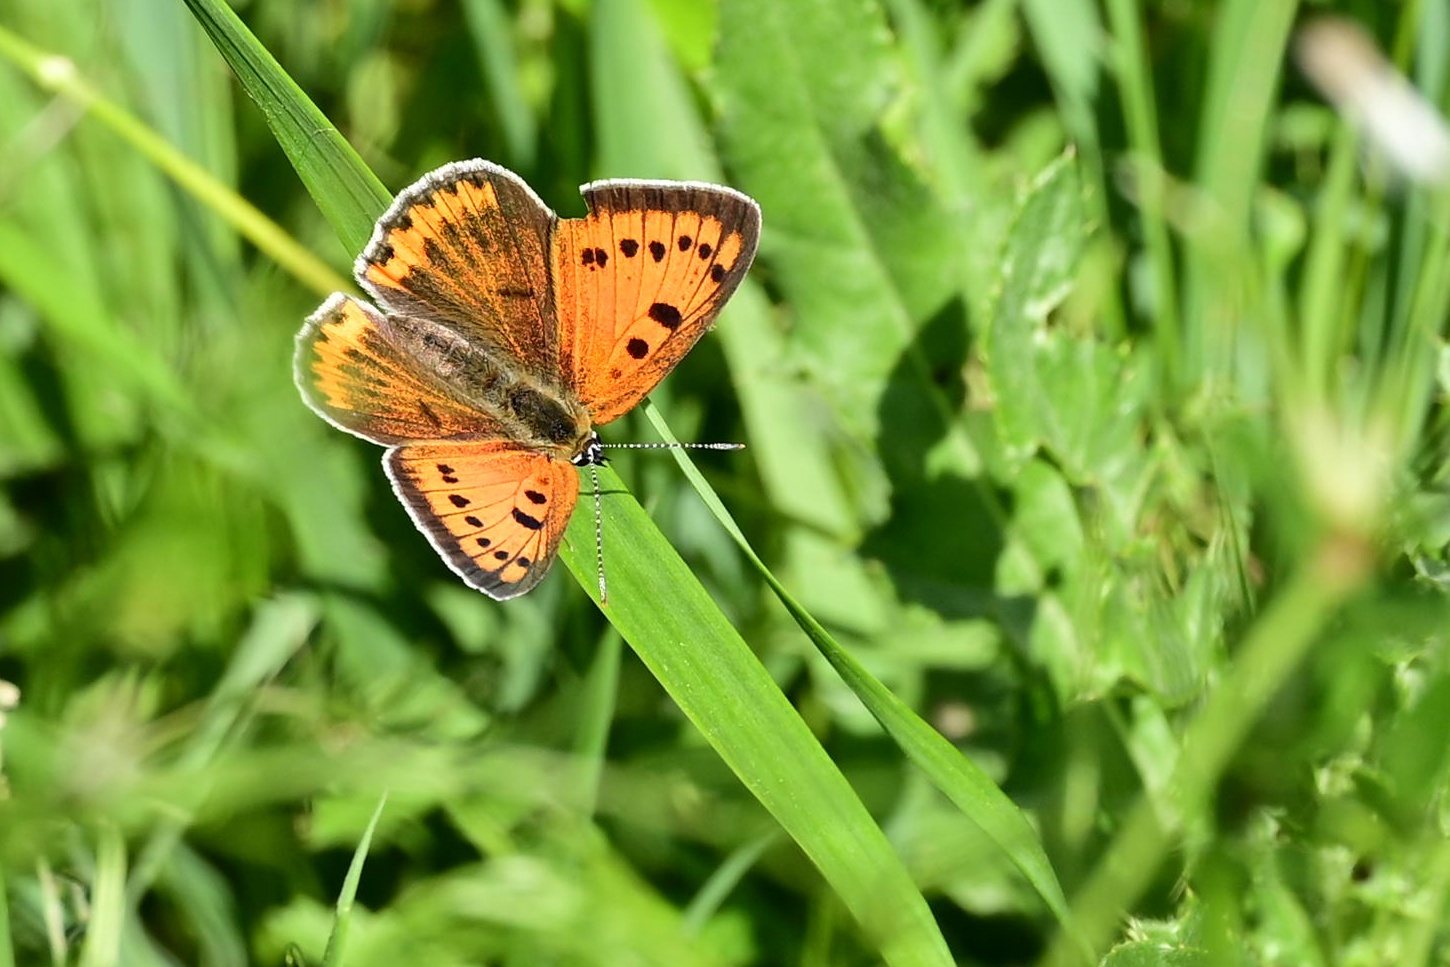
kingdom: Animalia
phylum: Arthropoda
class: Insecta
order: Lepidoptera
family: Lycaenidae
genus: Lycaena
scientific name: Lycaena dispar
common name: Large copper
